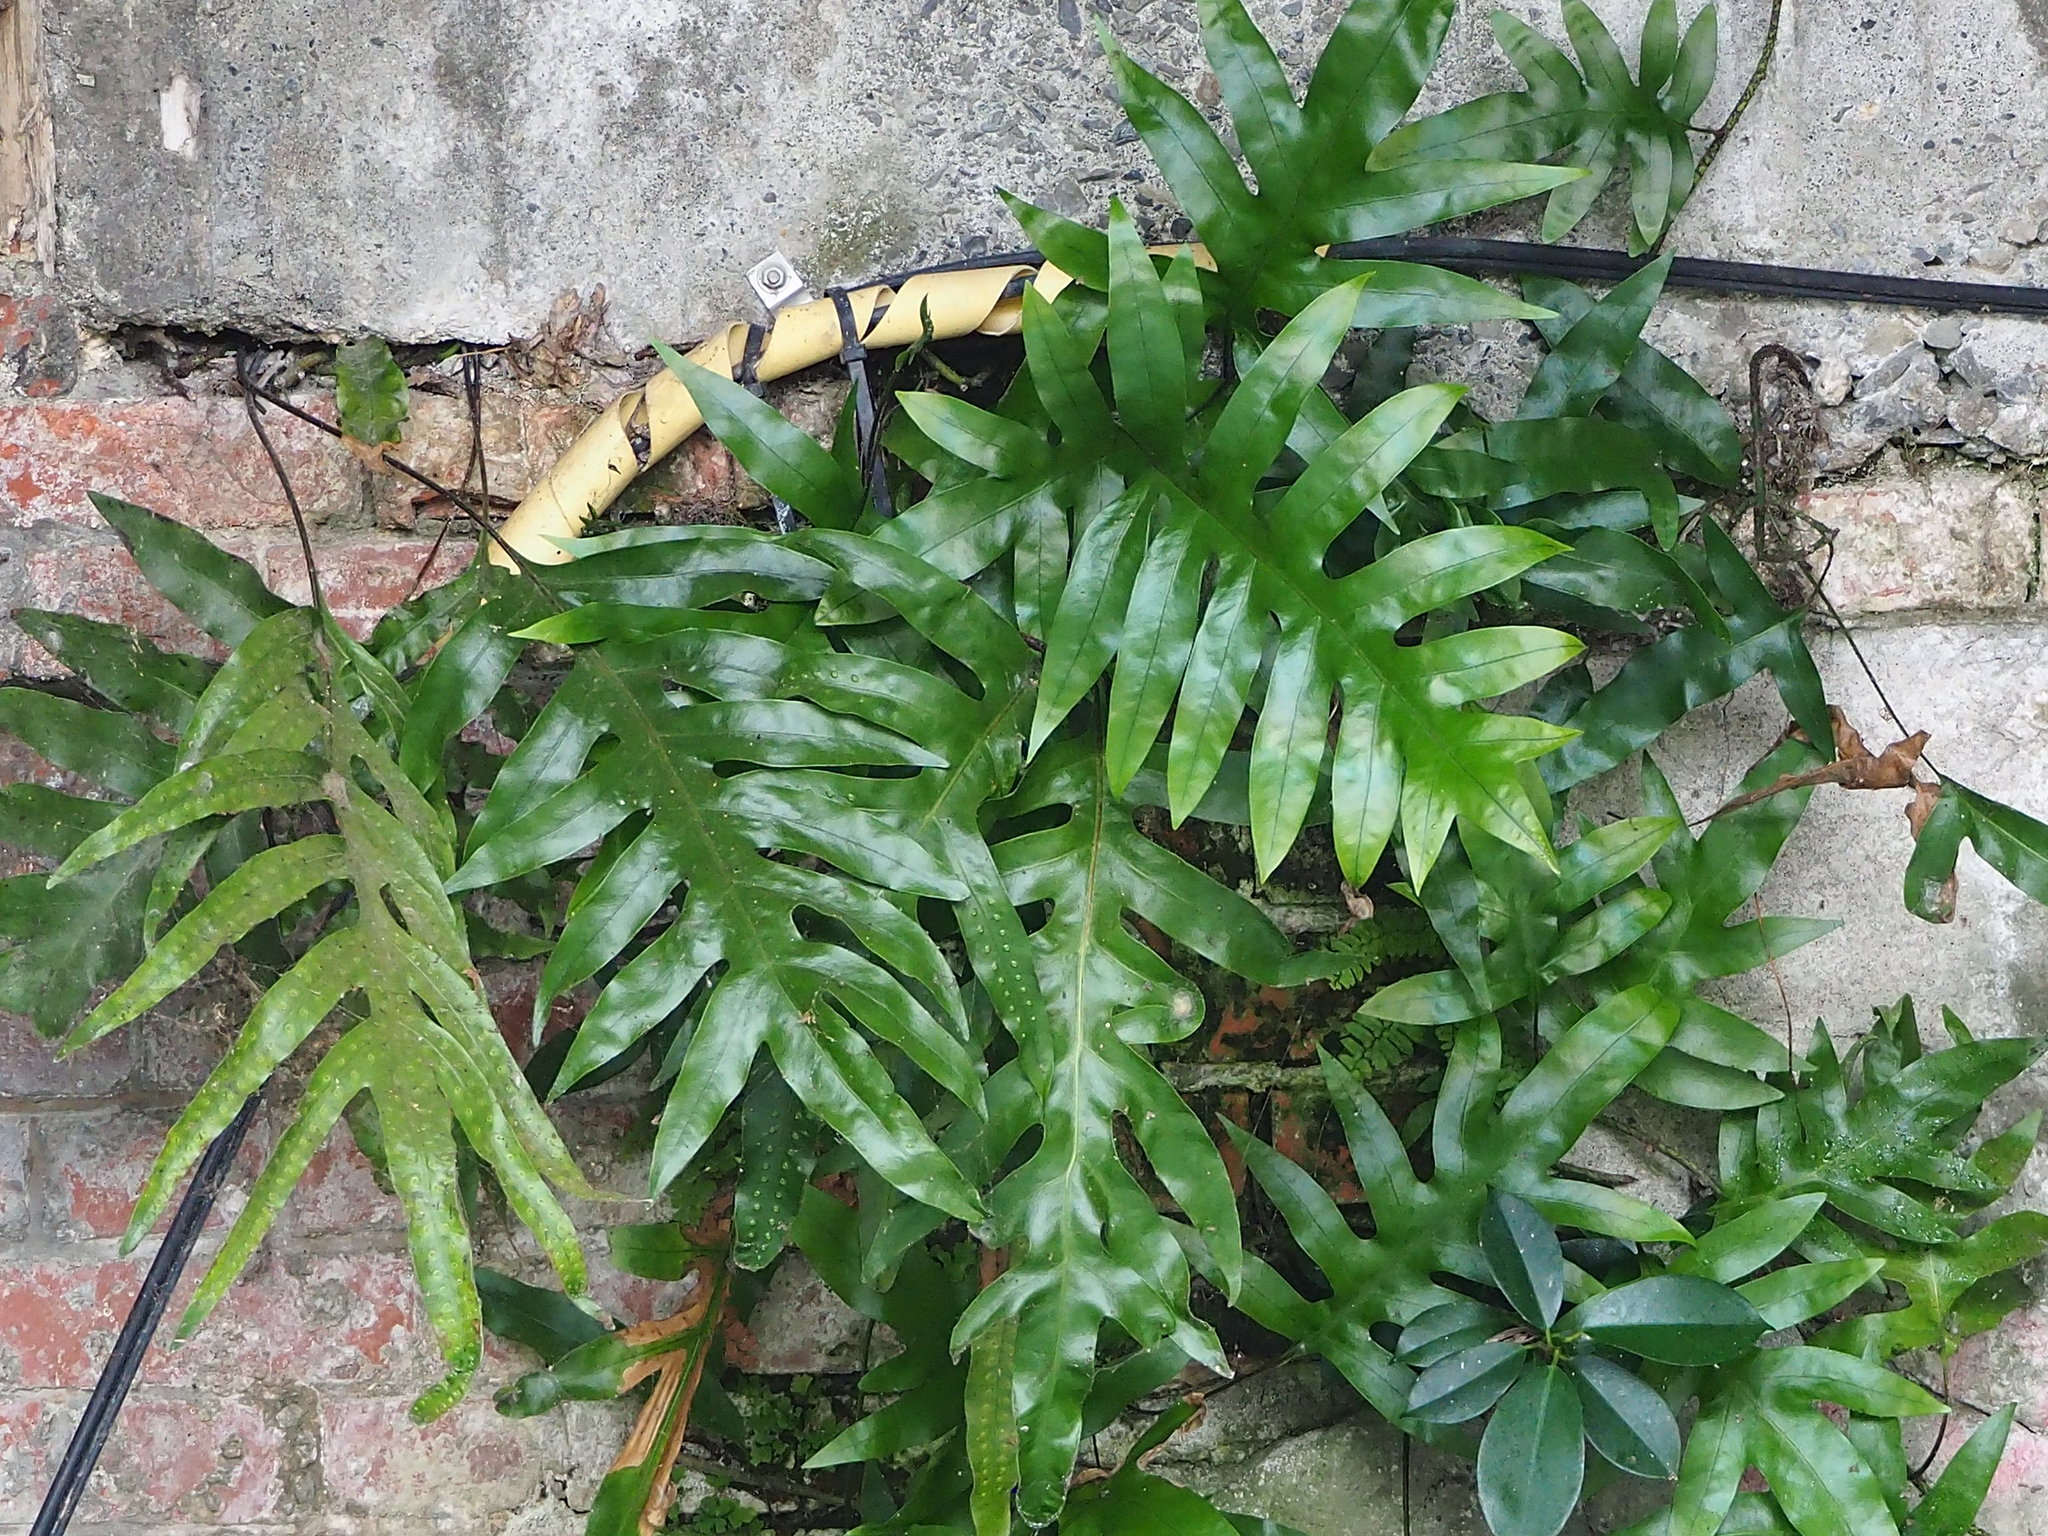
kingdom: Plantae
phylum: Tracheophyta
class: Polypodiopsida
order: Polypodiales
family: Polypodiaceae
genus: Microsorum
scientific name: Microsorum scolopendria
